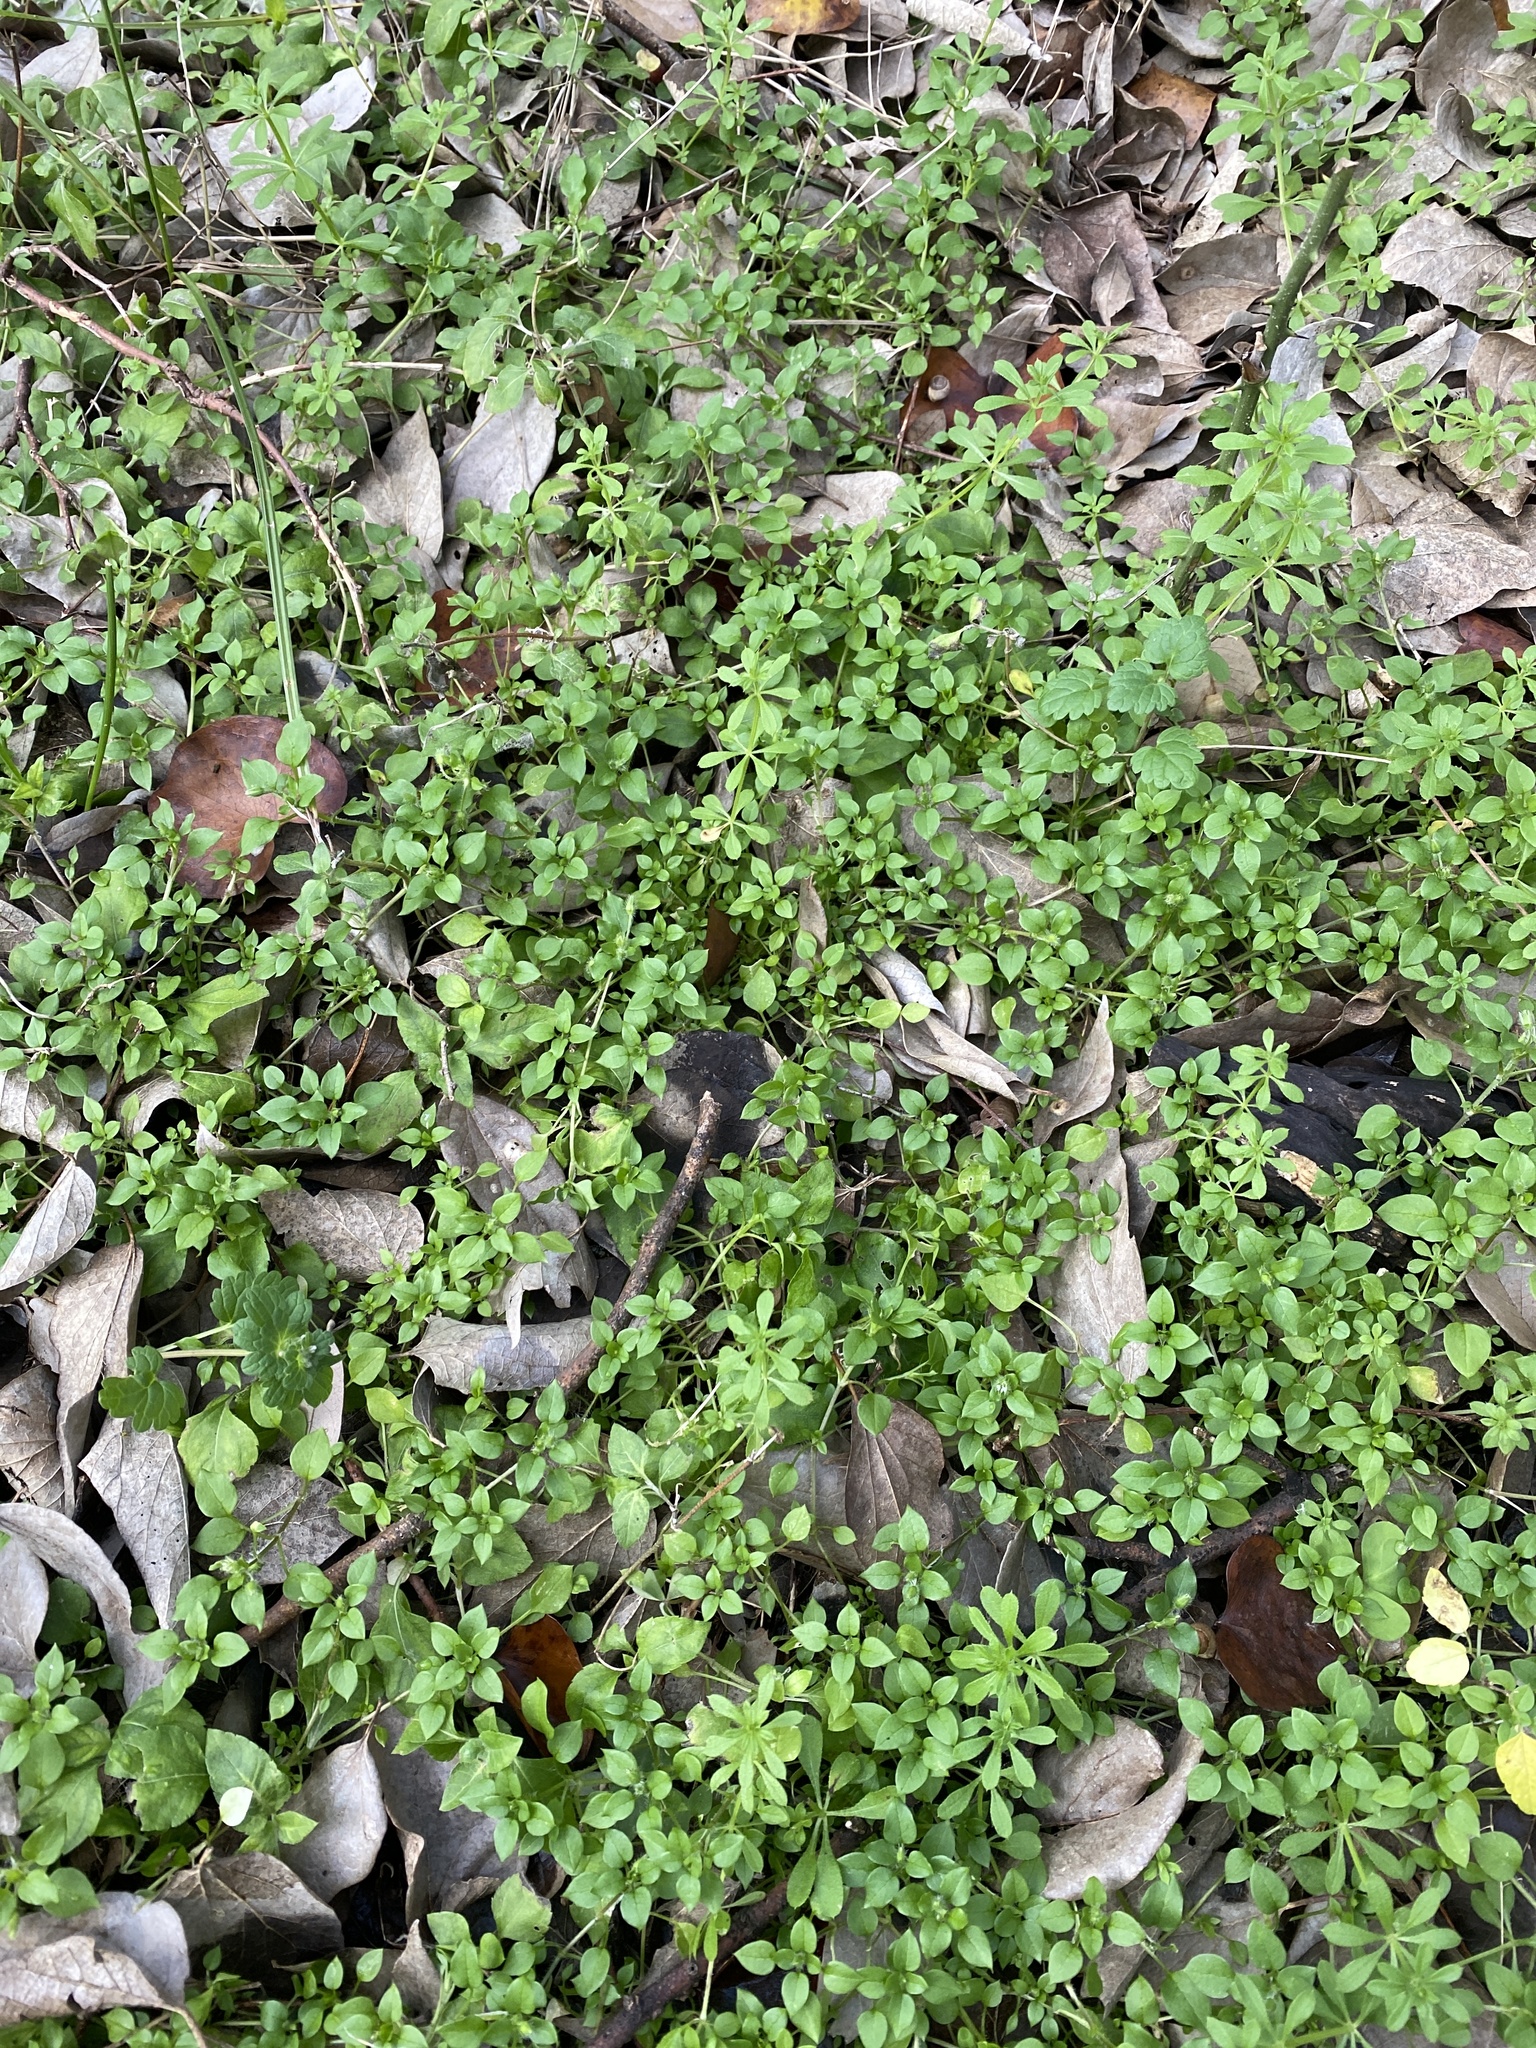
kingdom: Plantae
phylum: Tracheophyta
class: Magnoliopsida
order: Caryophyllales
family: Caryophyllaceae
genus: Stellaria
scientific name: Stellaria media
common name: Common chickweed
